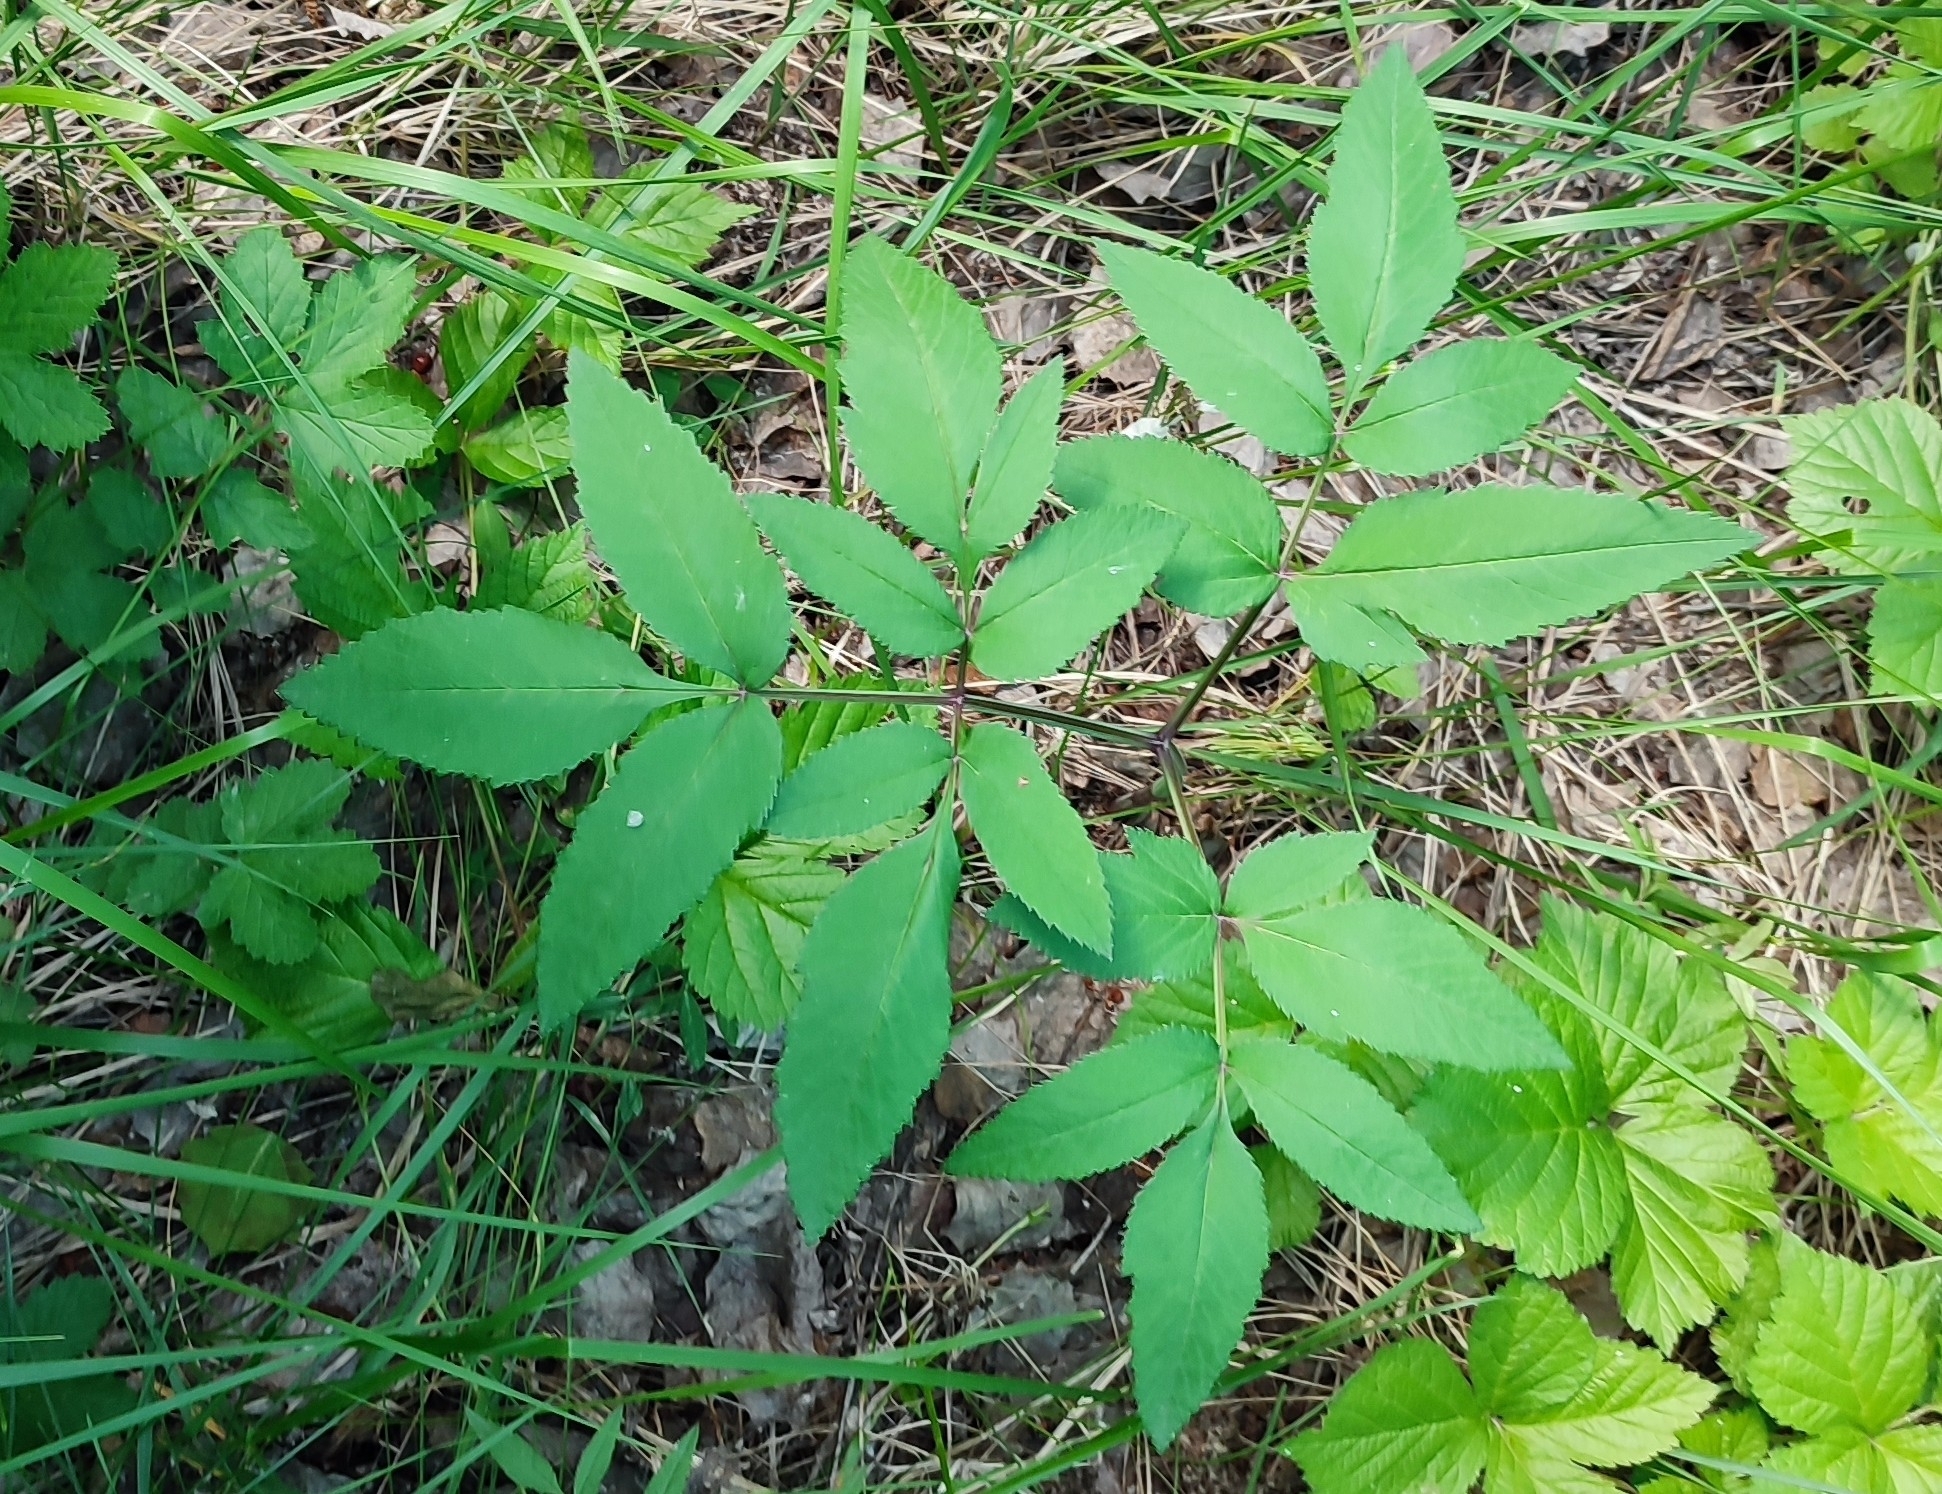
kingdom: Plantae
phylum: Tracheophyta
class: Magnoliopsida
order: Apiales
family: Apiaceae
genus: Angelica
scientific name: Angelica sylvestris
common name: Wild angelica
